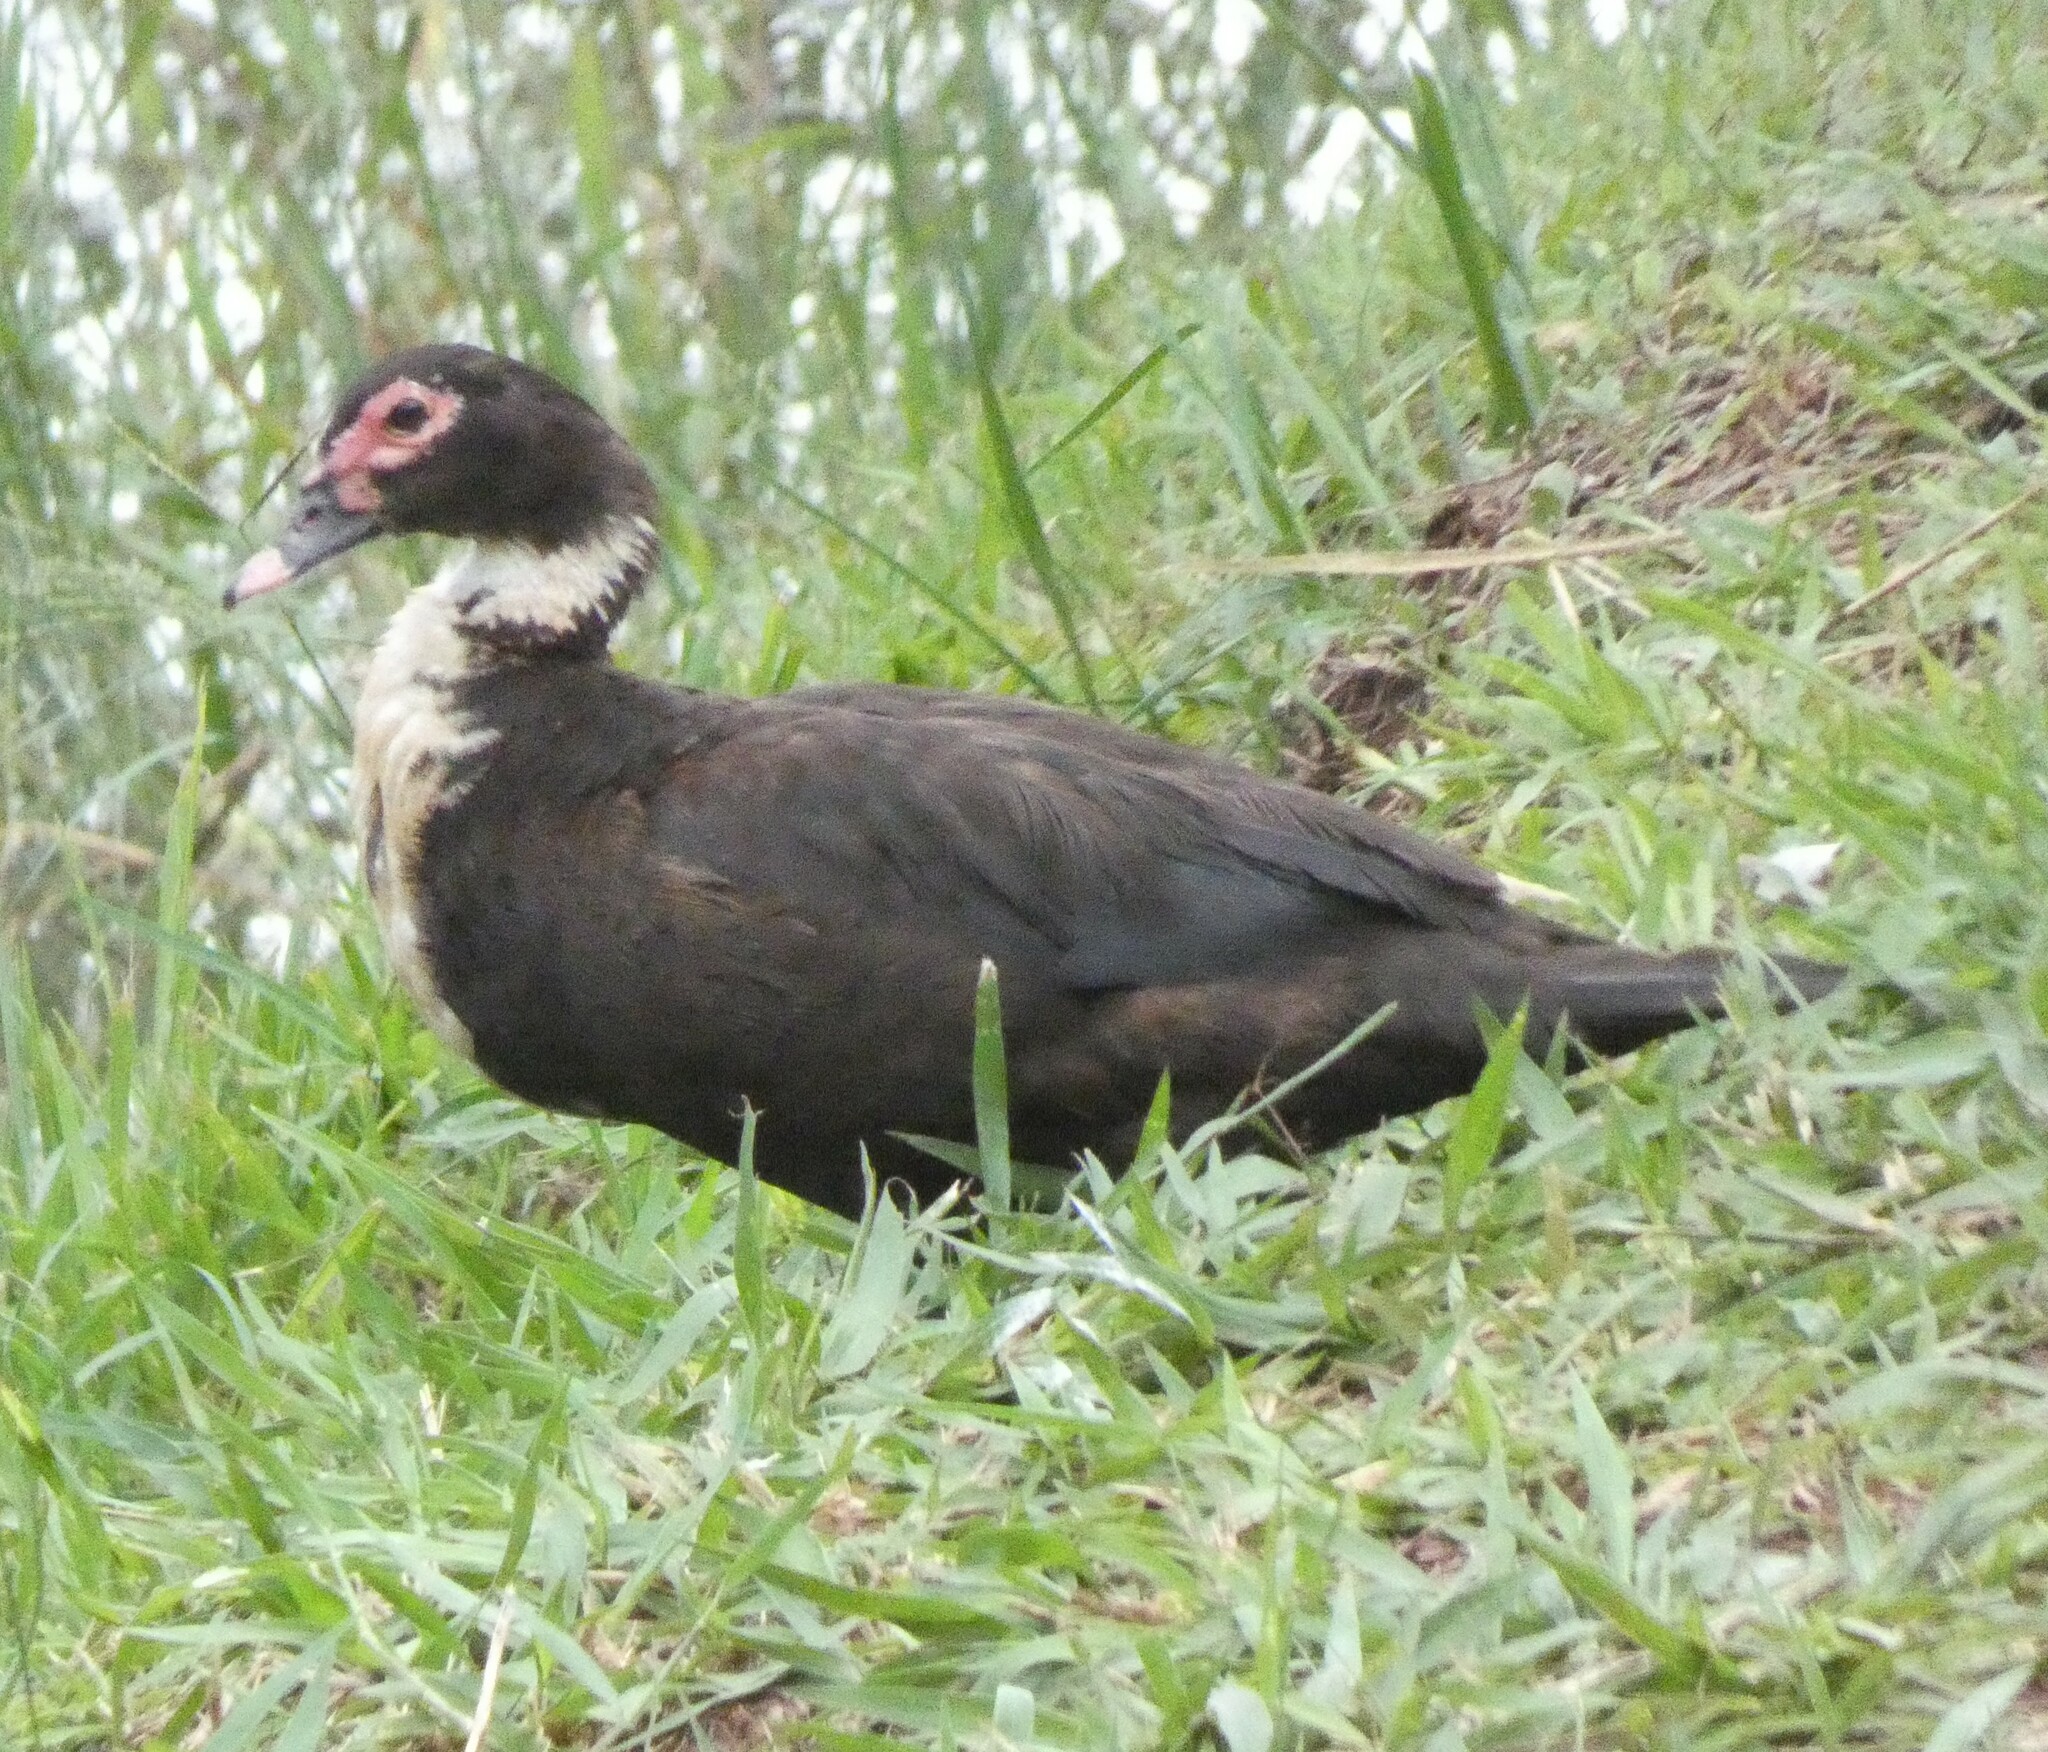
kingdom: Animalia
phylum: Chordata
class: Aves
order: Anseriformes
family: Anatidae
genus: Cairina
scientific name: Cairina moschata
